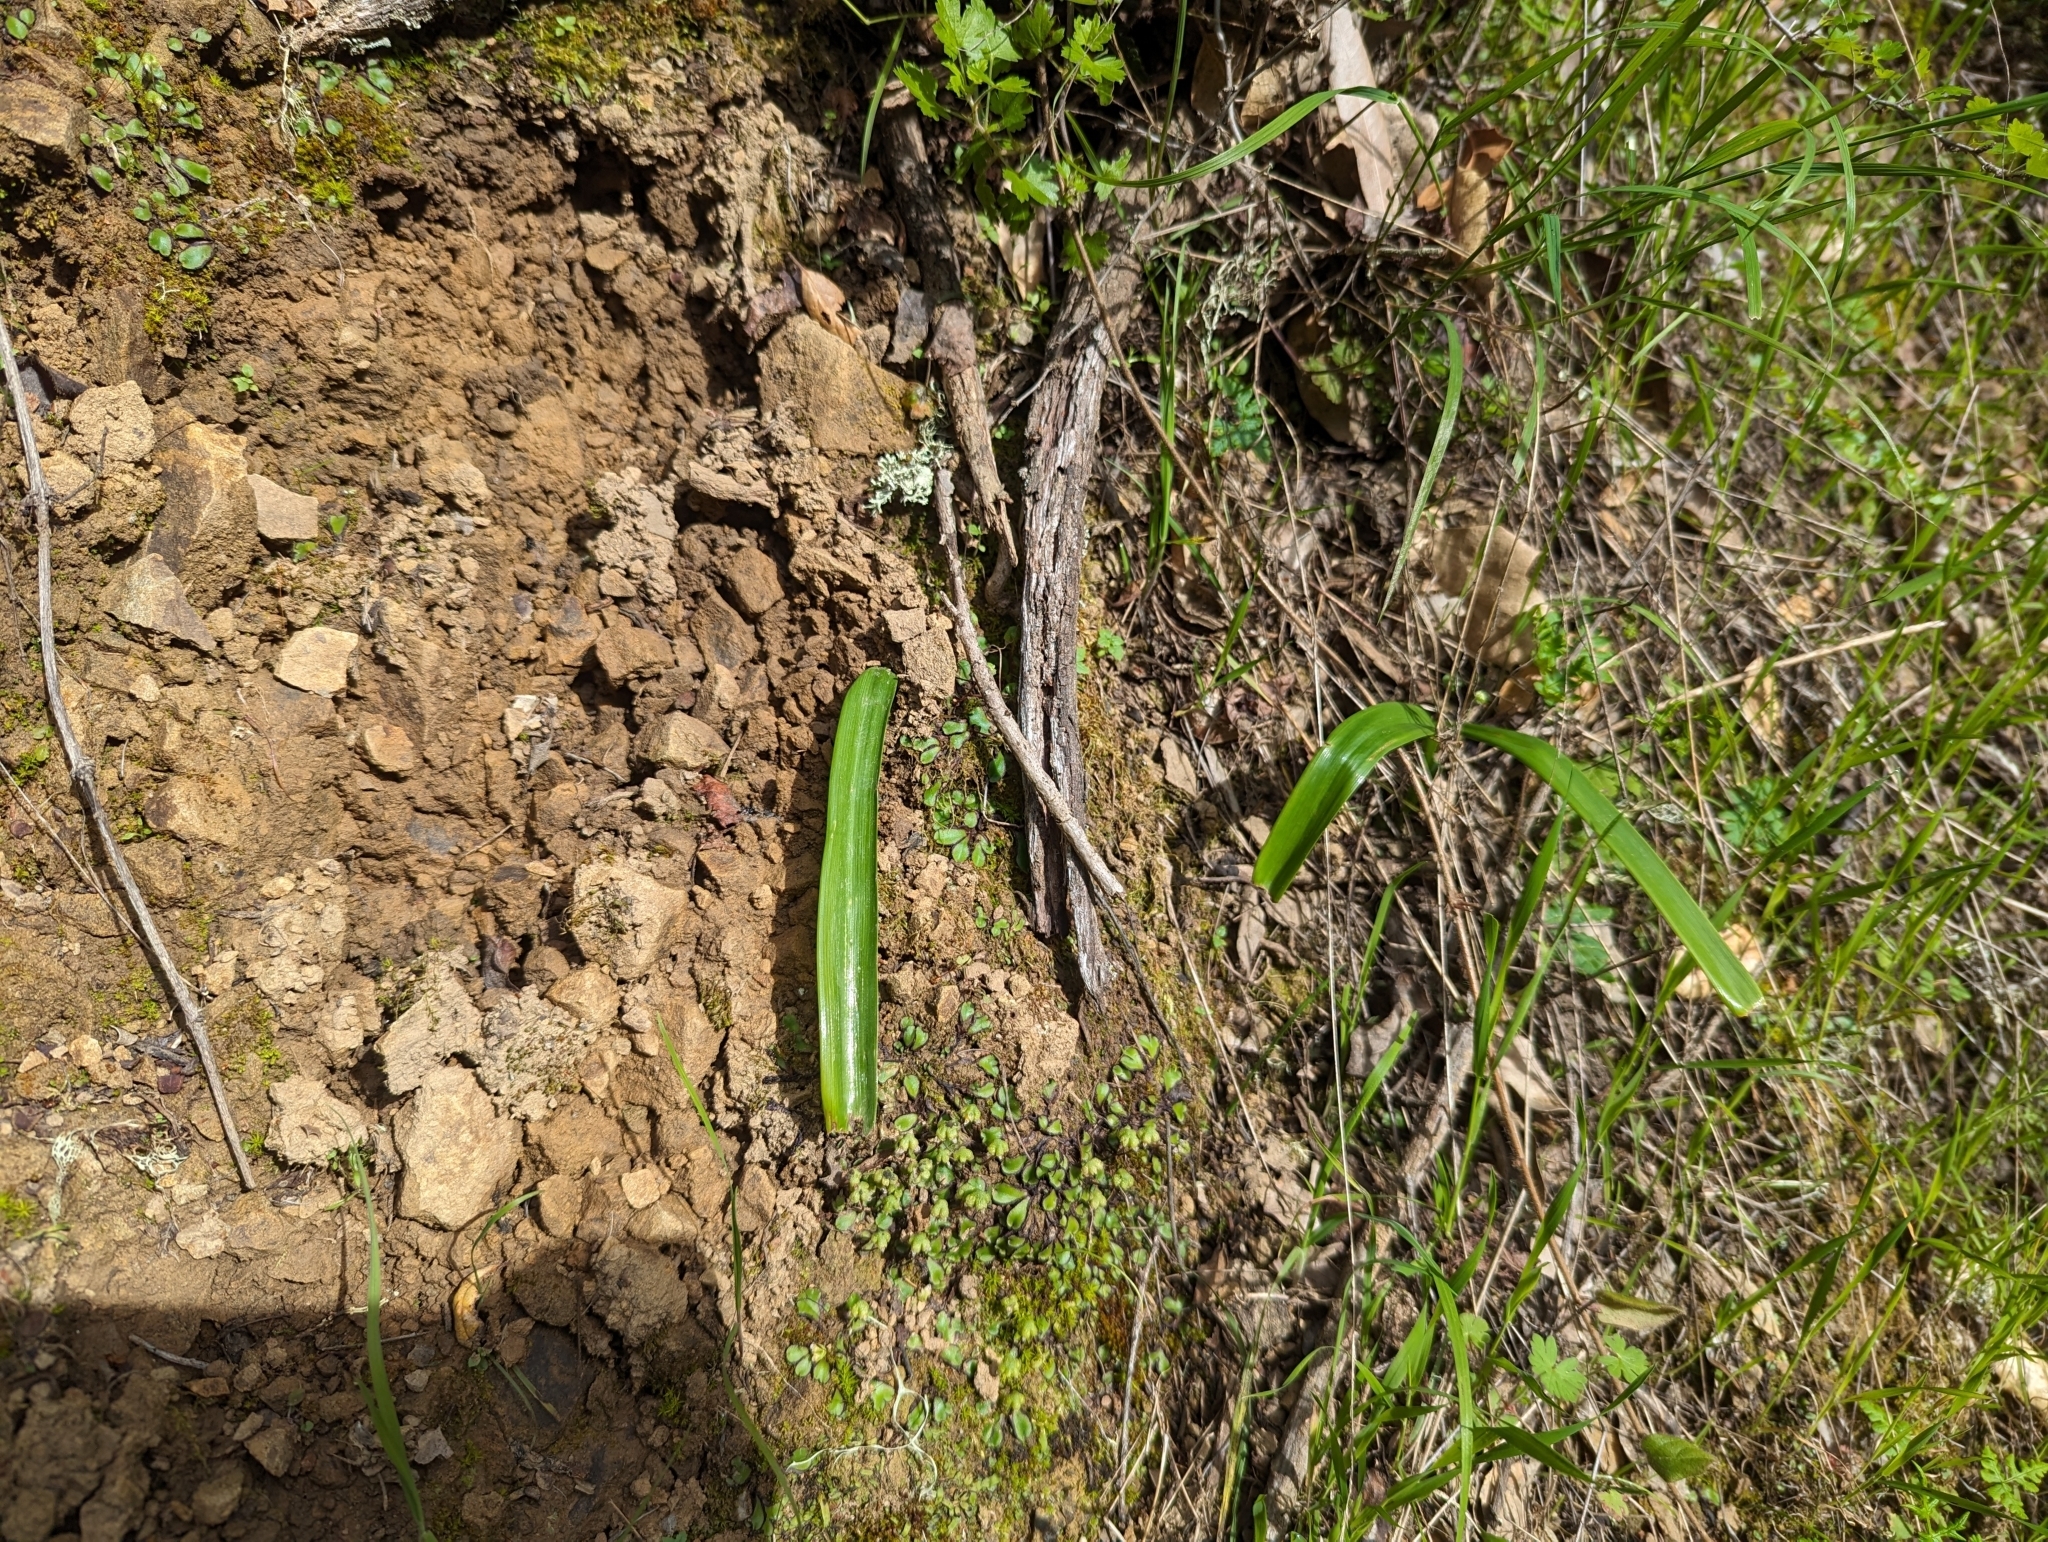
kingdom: Plantae
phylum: Tracheophyta
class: Liliopsida
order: Liliales
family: Liliaceae
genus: Calochortus
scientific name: Calochortus albus
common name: Fairy-lantern
